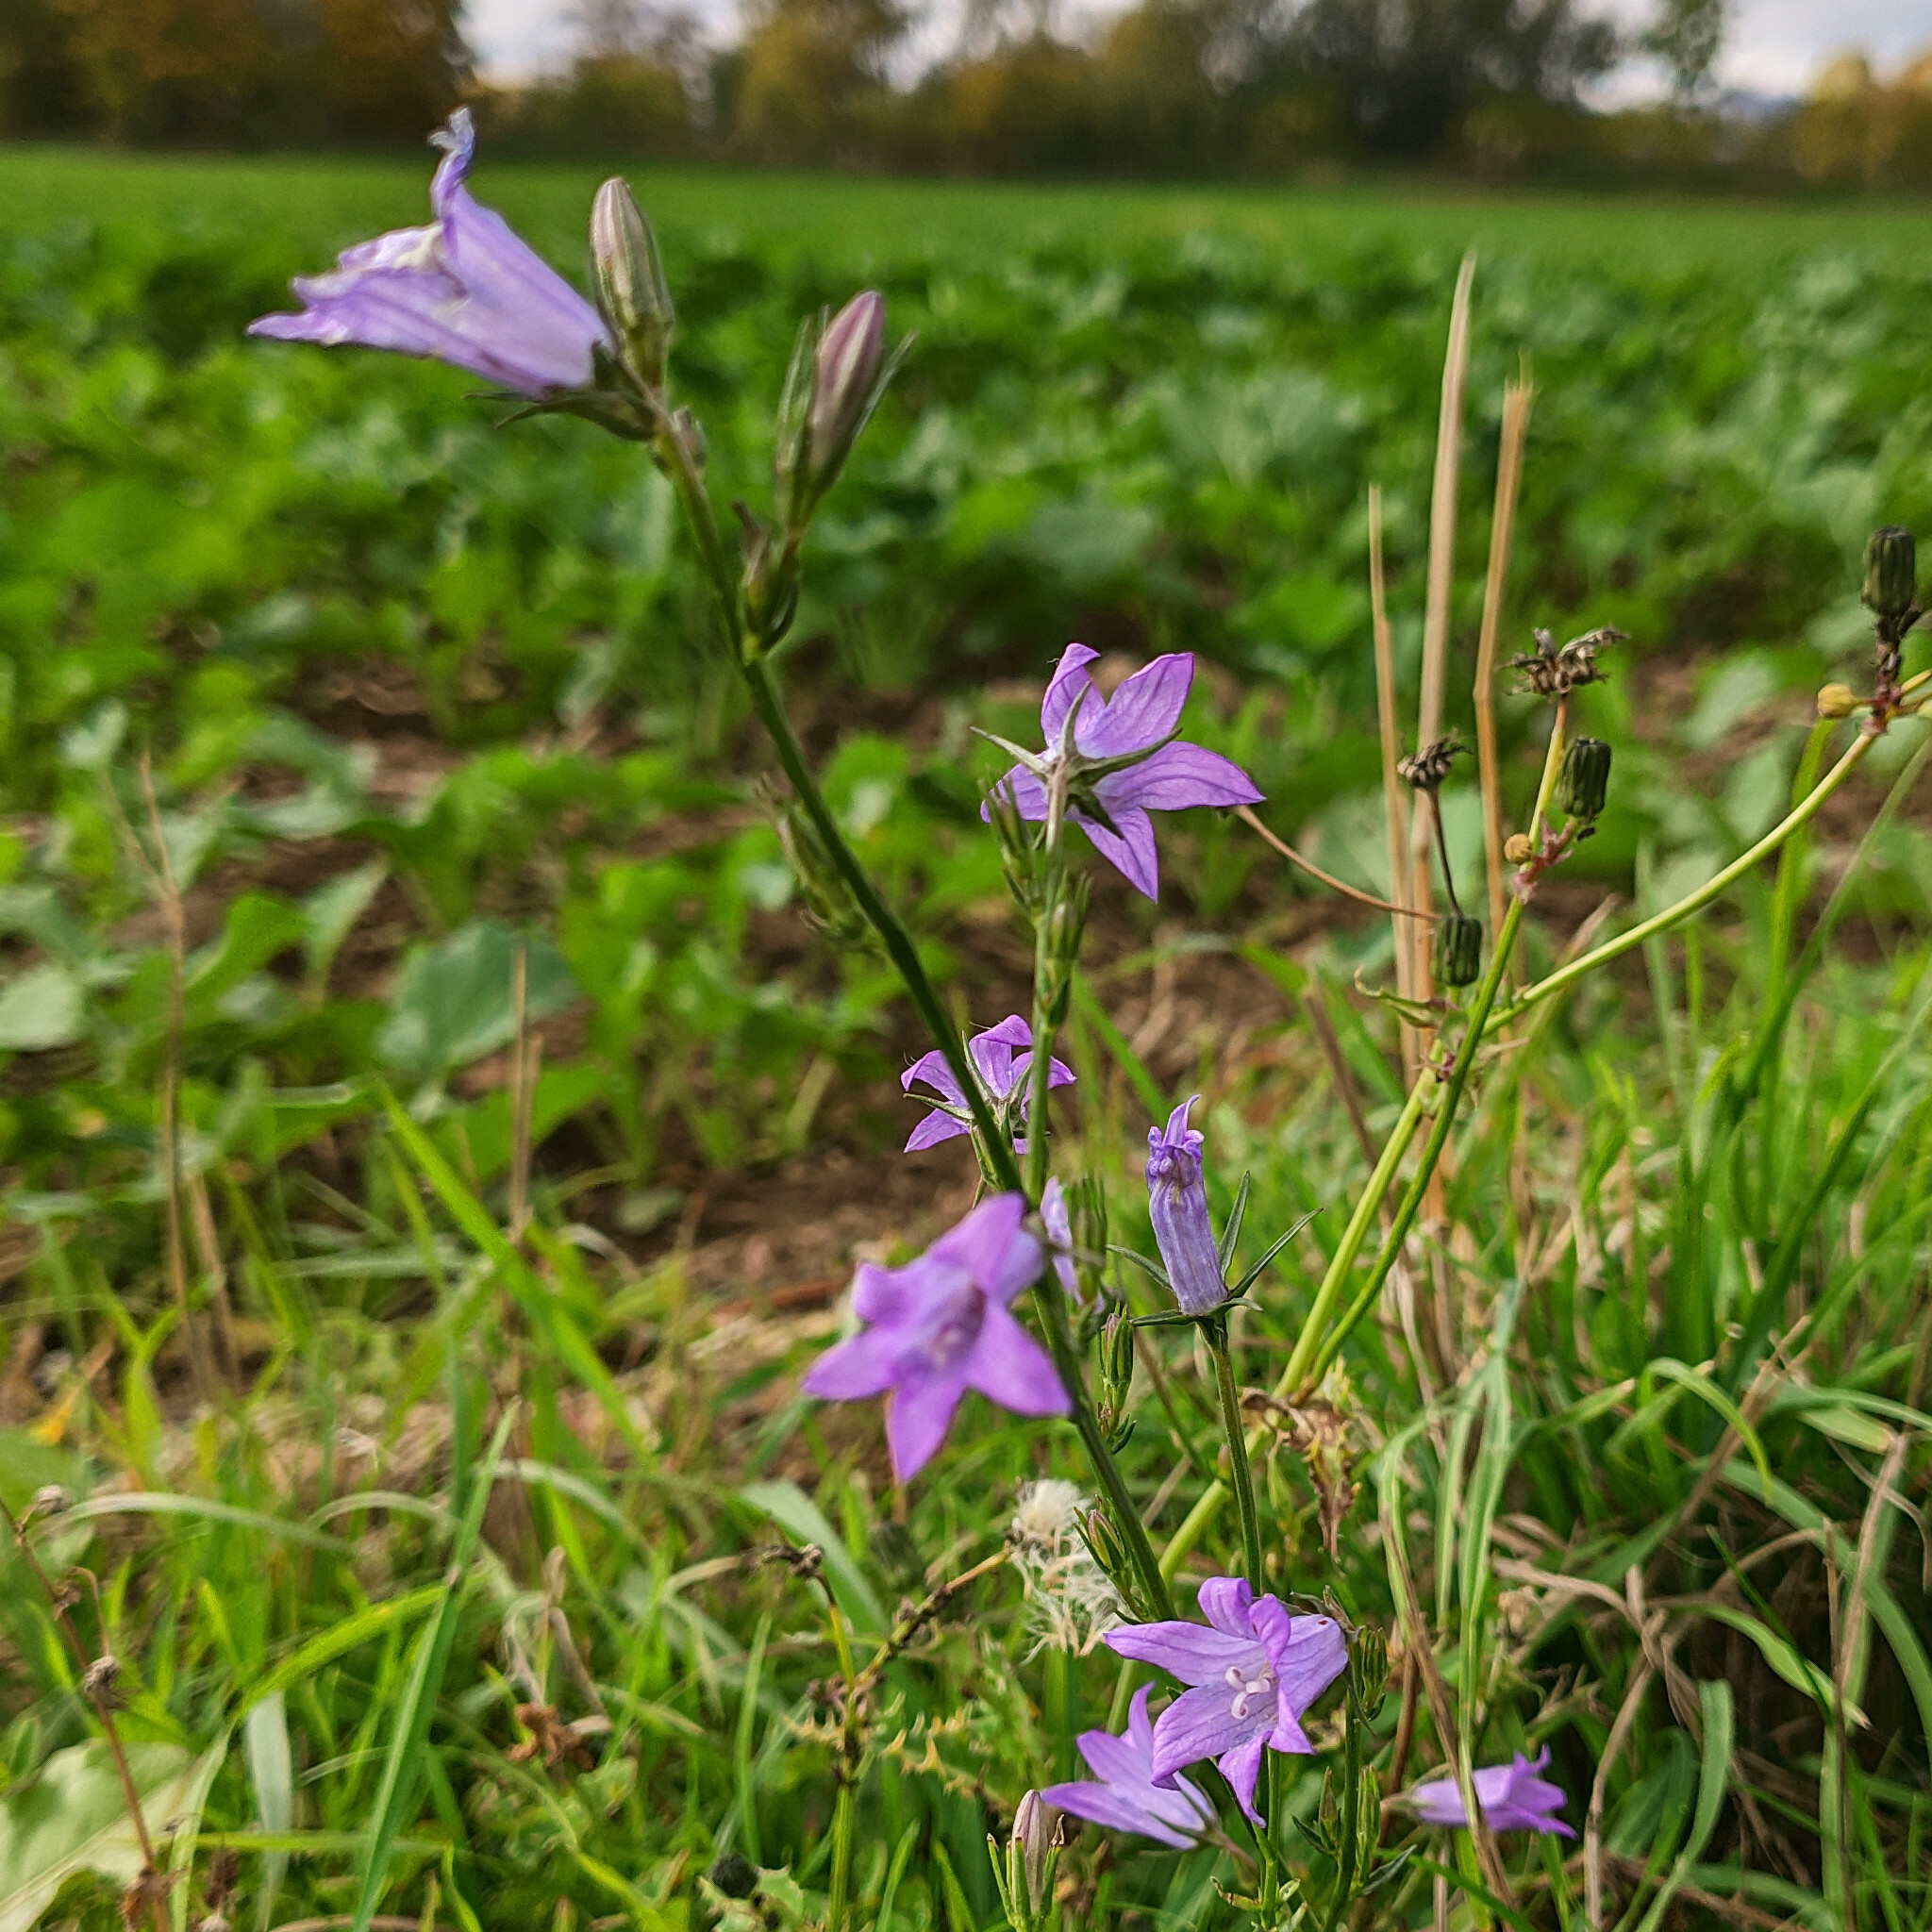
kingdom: Plantae
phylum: Tracheophyta
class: Magnoliopsida
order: Asterales
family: Campanulaceae
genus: Campanula
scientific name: Campanula rapunculus
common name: Rampion bellflower
